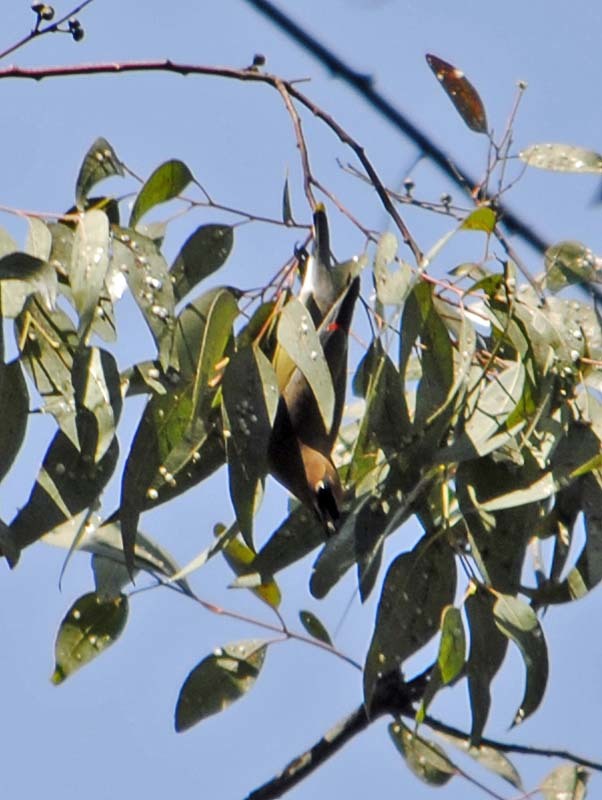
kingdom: Animalia
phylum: Chordata
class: Aves
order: Passeriformes
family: Bombycillidae
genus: Bombycilla
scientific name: Bombycilla cedrorum
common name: Cedar waxwing
